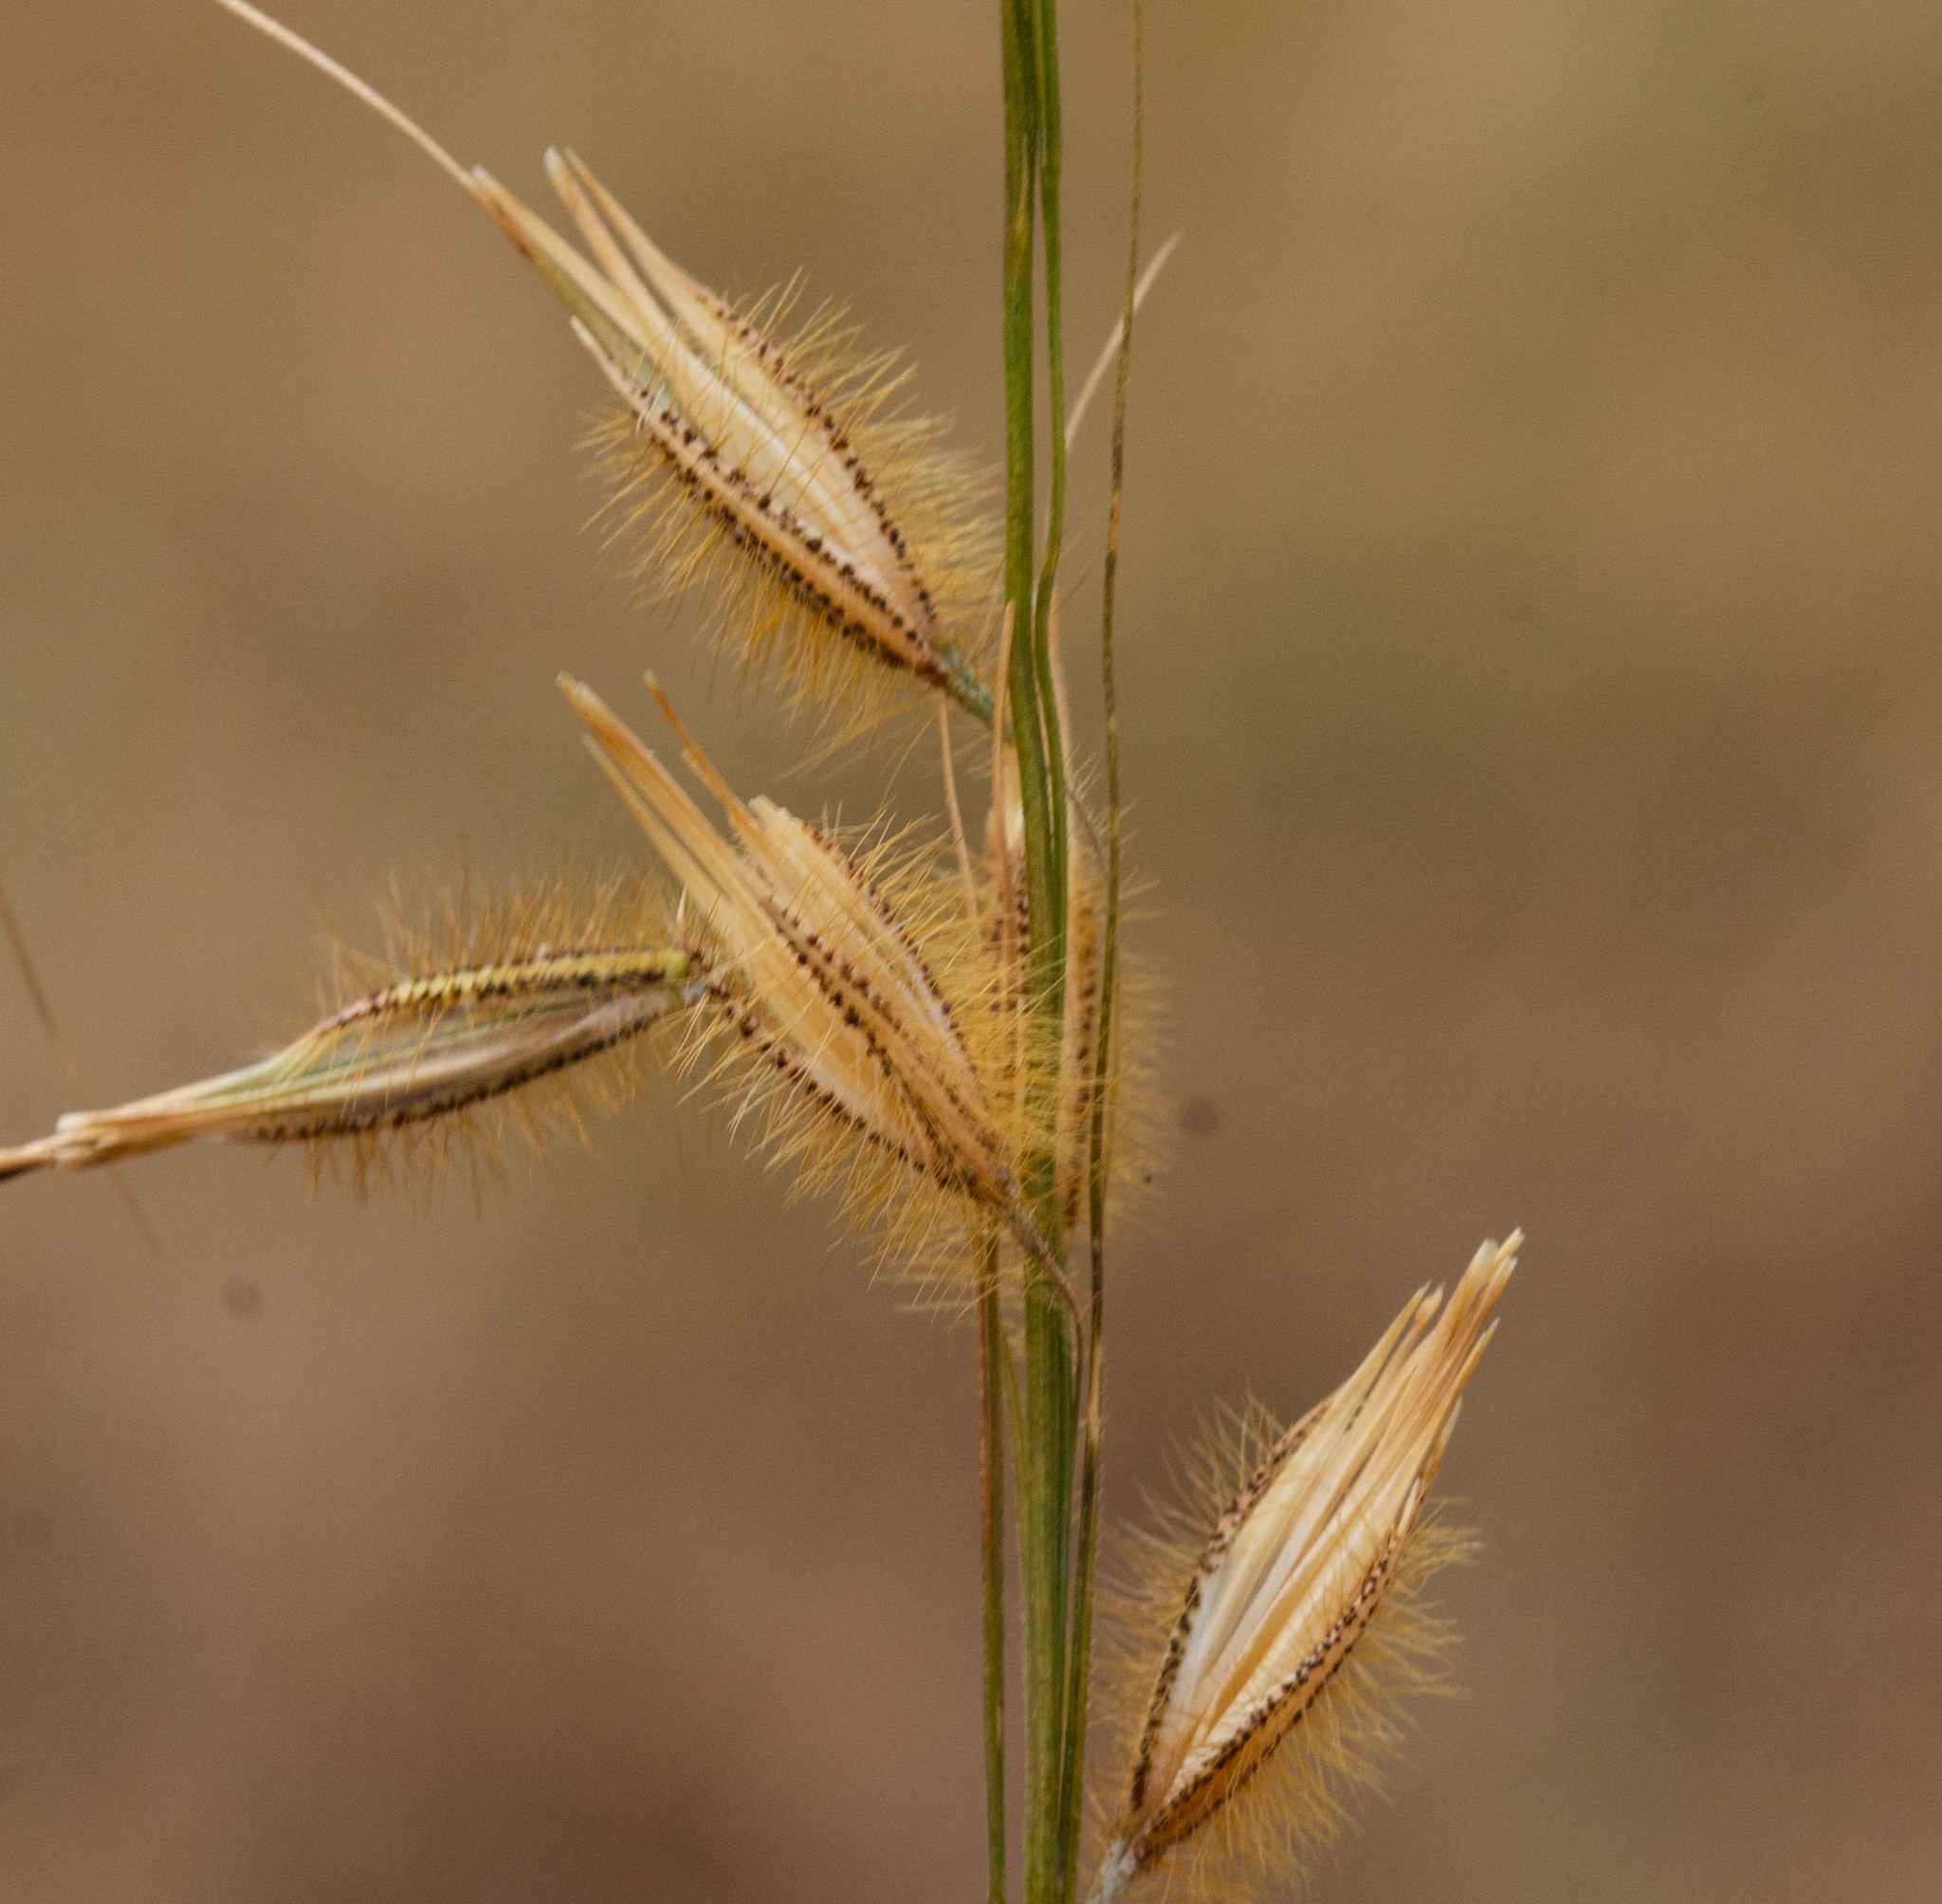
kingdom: Plantae
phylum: Tracheophyta
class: Liliopsida
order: Poales
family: Poaceae
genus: Loudetiopsis
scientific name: Loudetiopsis chrysothrix
